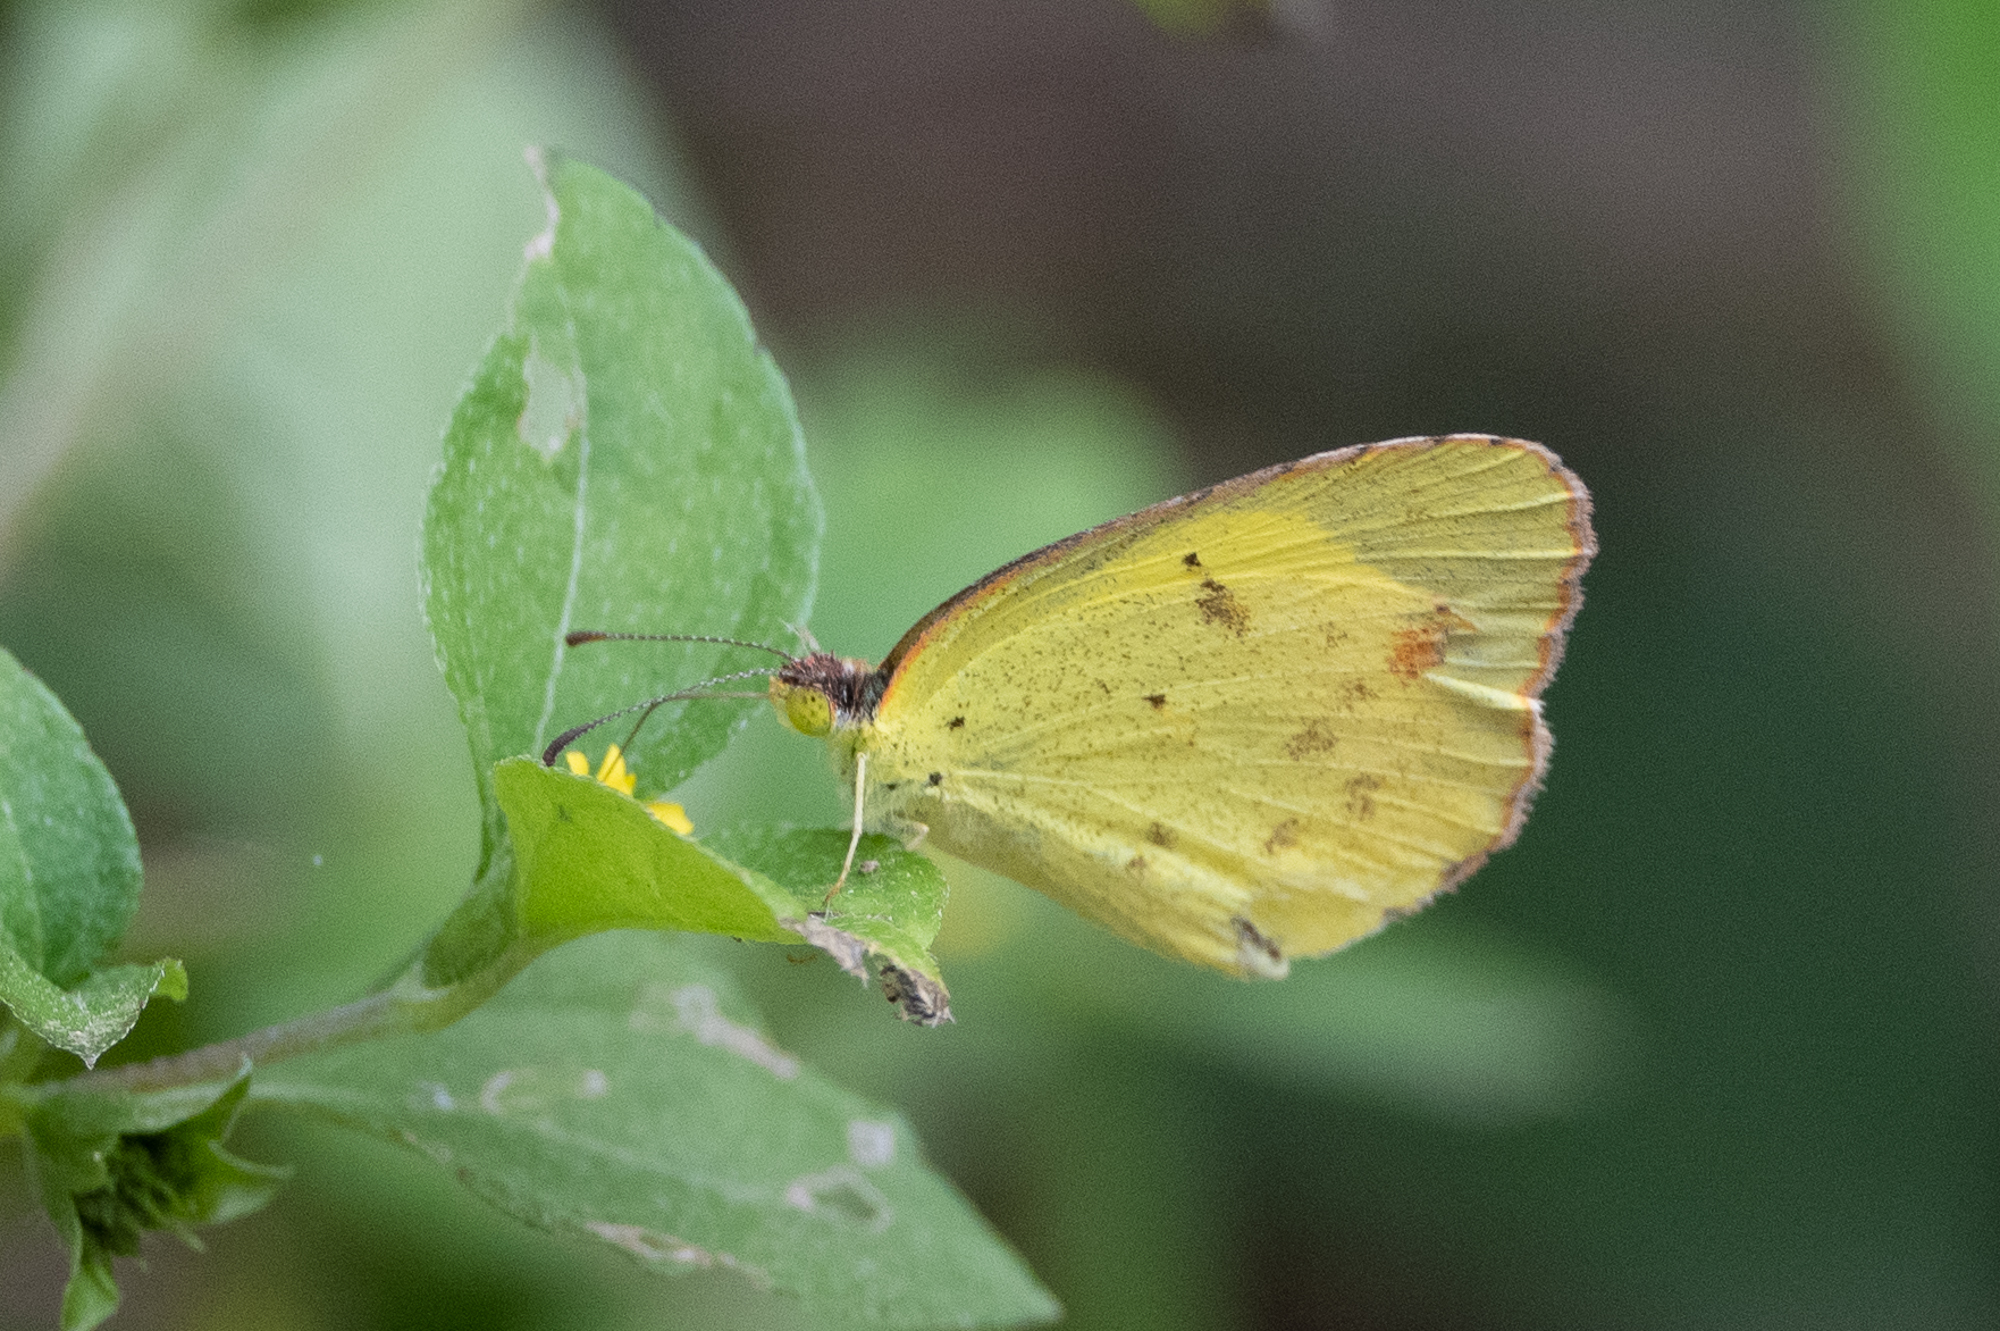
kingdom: Animalia
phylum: Arthropoda
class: Insecta
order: Lepidoptera
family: Pieridae
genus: Pyrisitia
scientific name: Pyrisitia lisa
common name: Little yellow
